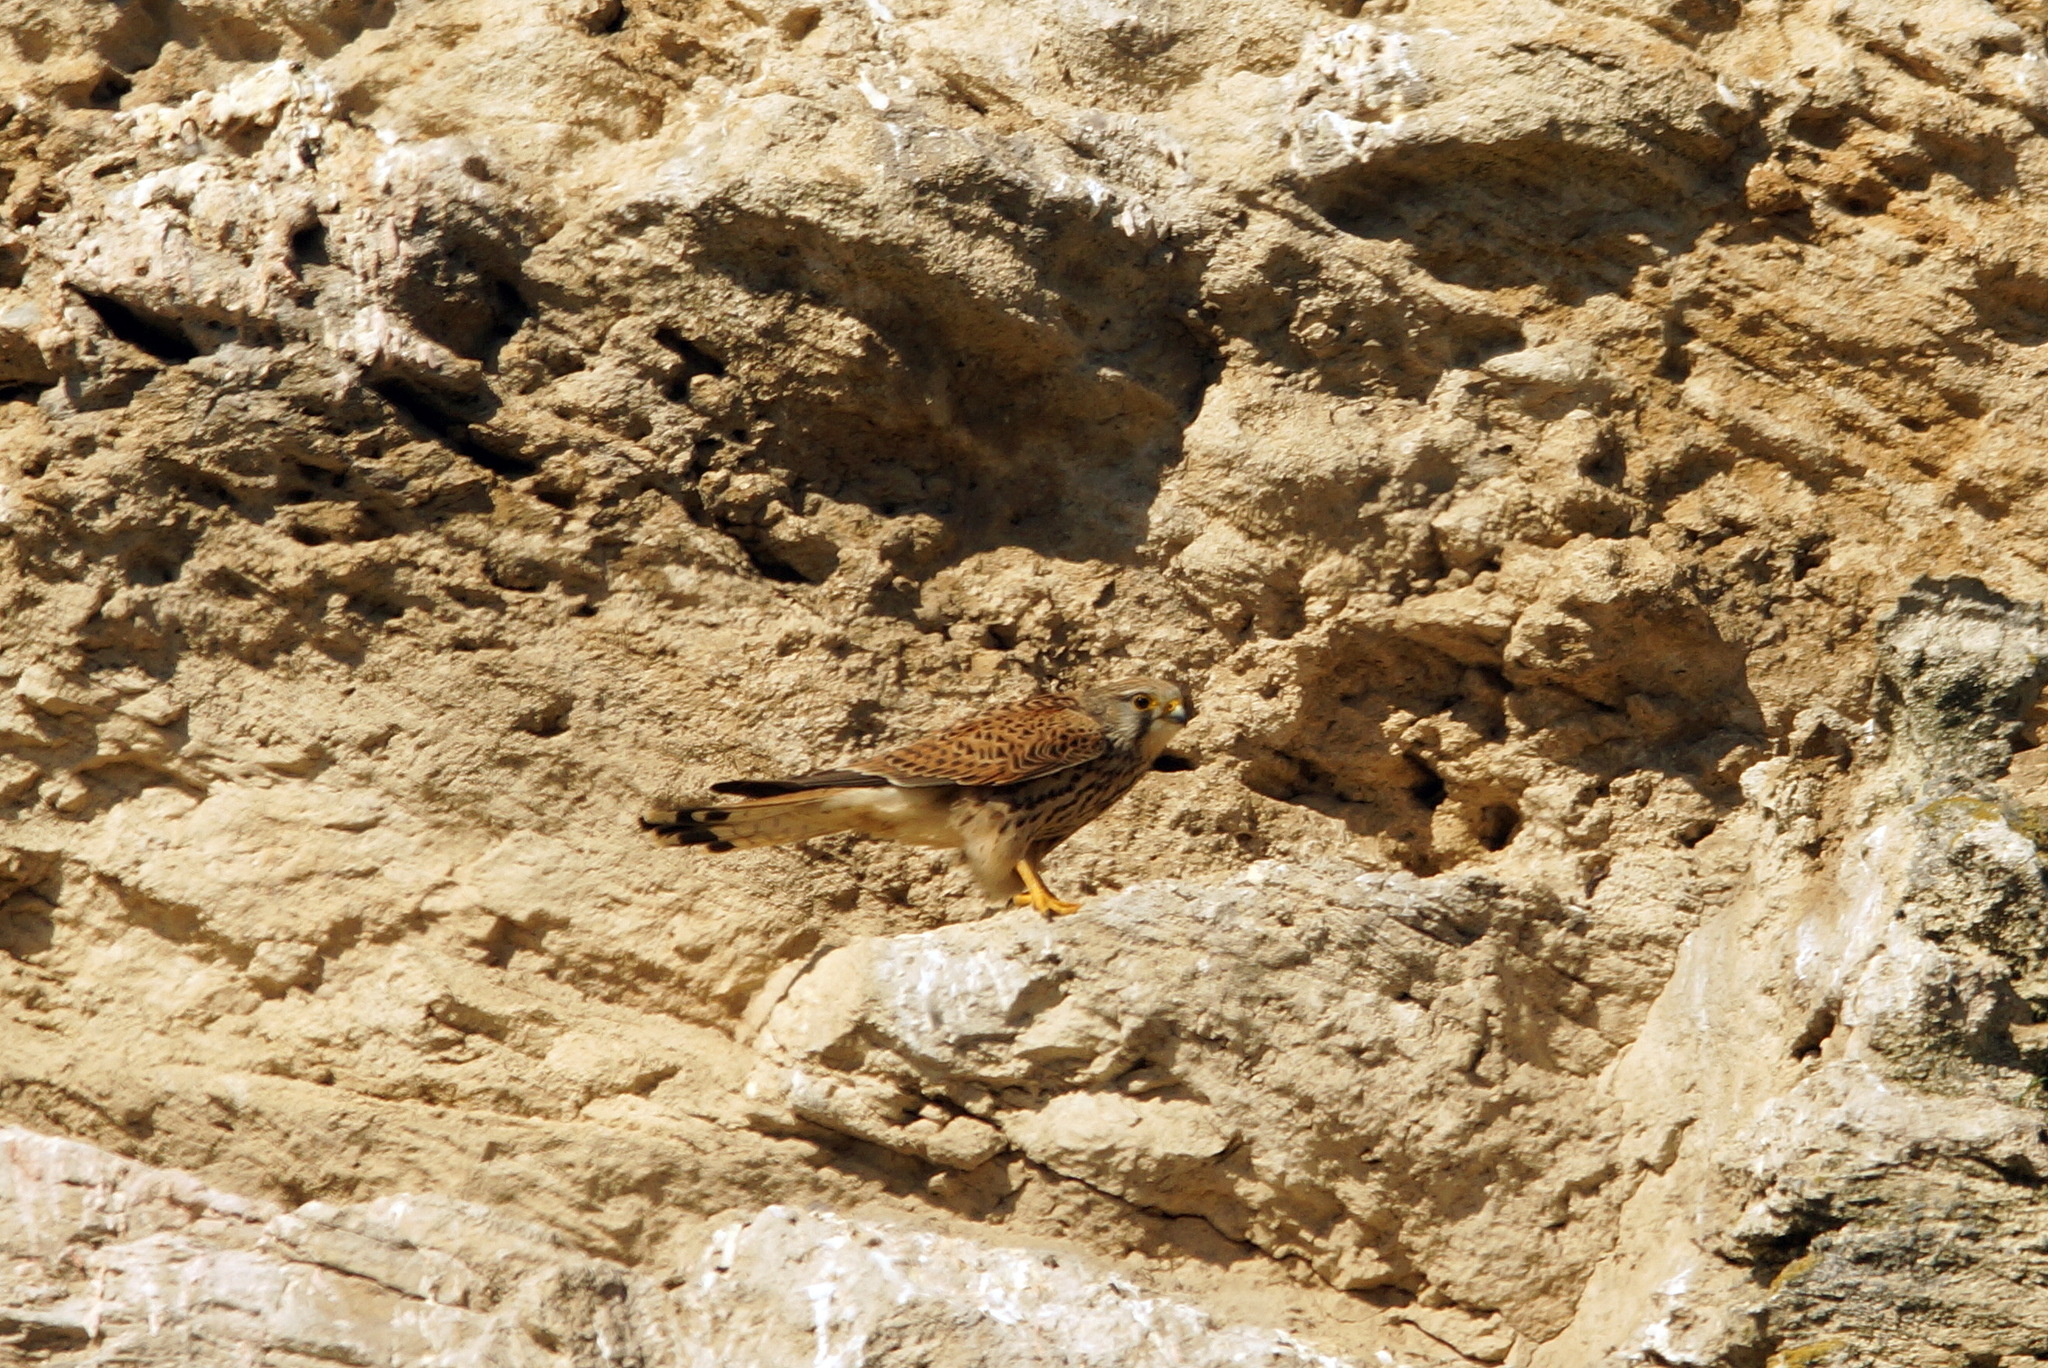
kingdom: Animalia
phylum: Chordata
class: Aves
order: Falconiformes
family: Falconidae
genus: Falco
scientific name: Falco tinnunculus
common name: Common kestrel
